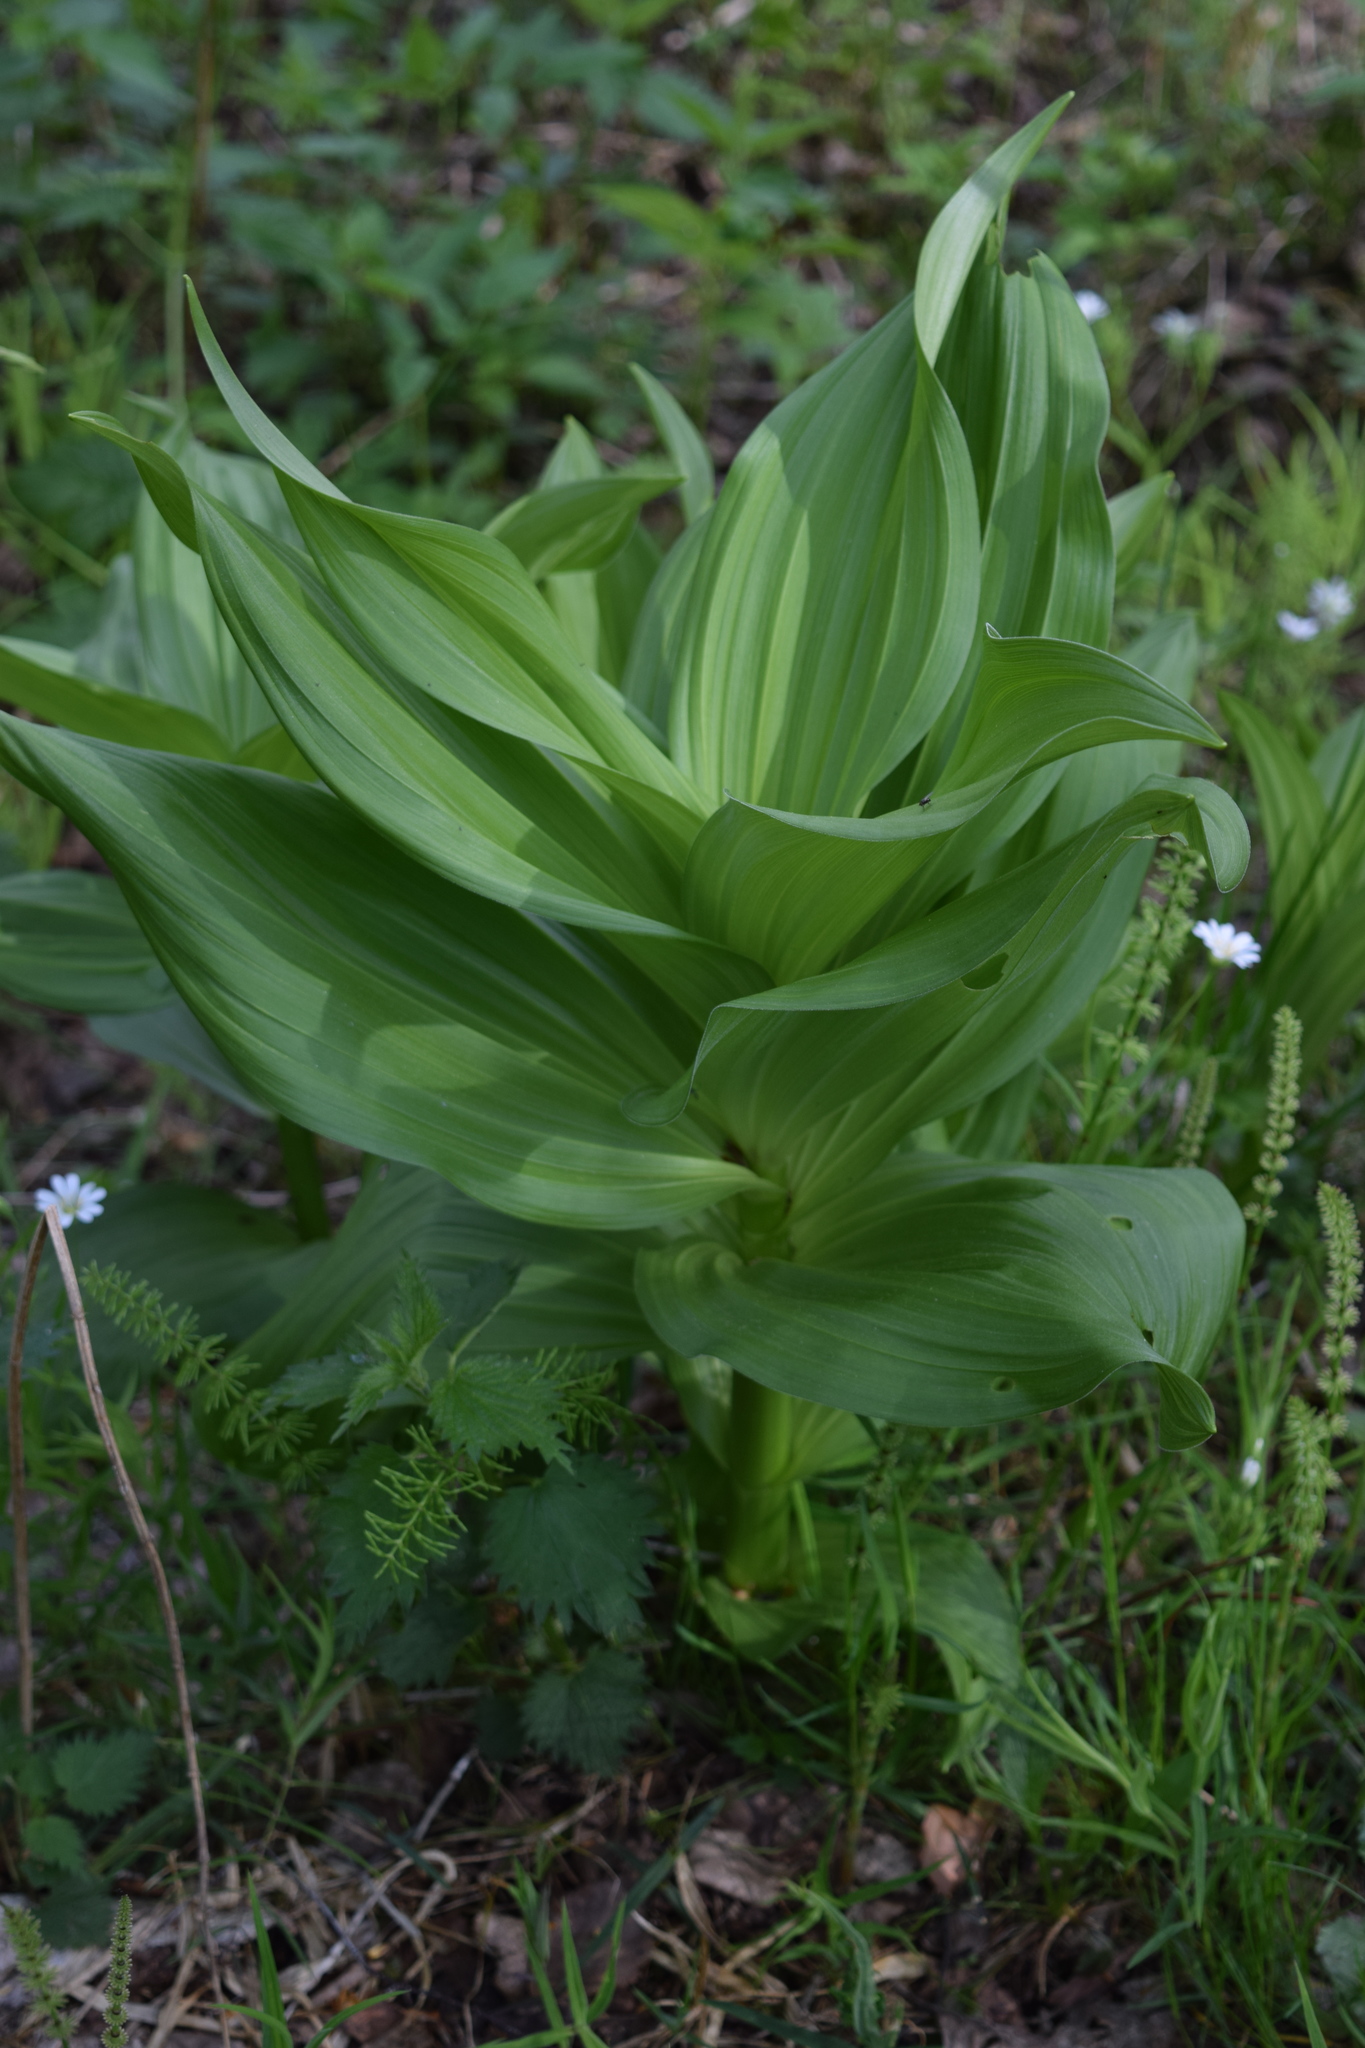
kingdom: Plantae
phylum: Tracheophyta
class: Liliopsida
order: Liliales
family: Melanthiaceae
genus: Veratrum
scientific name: Veratrum lobelianum
